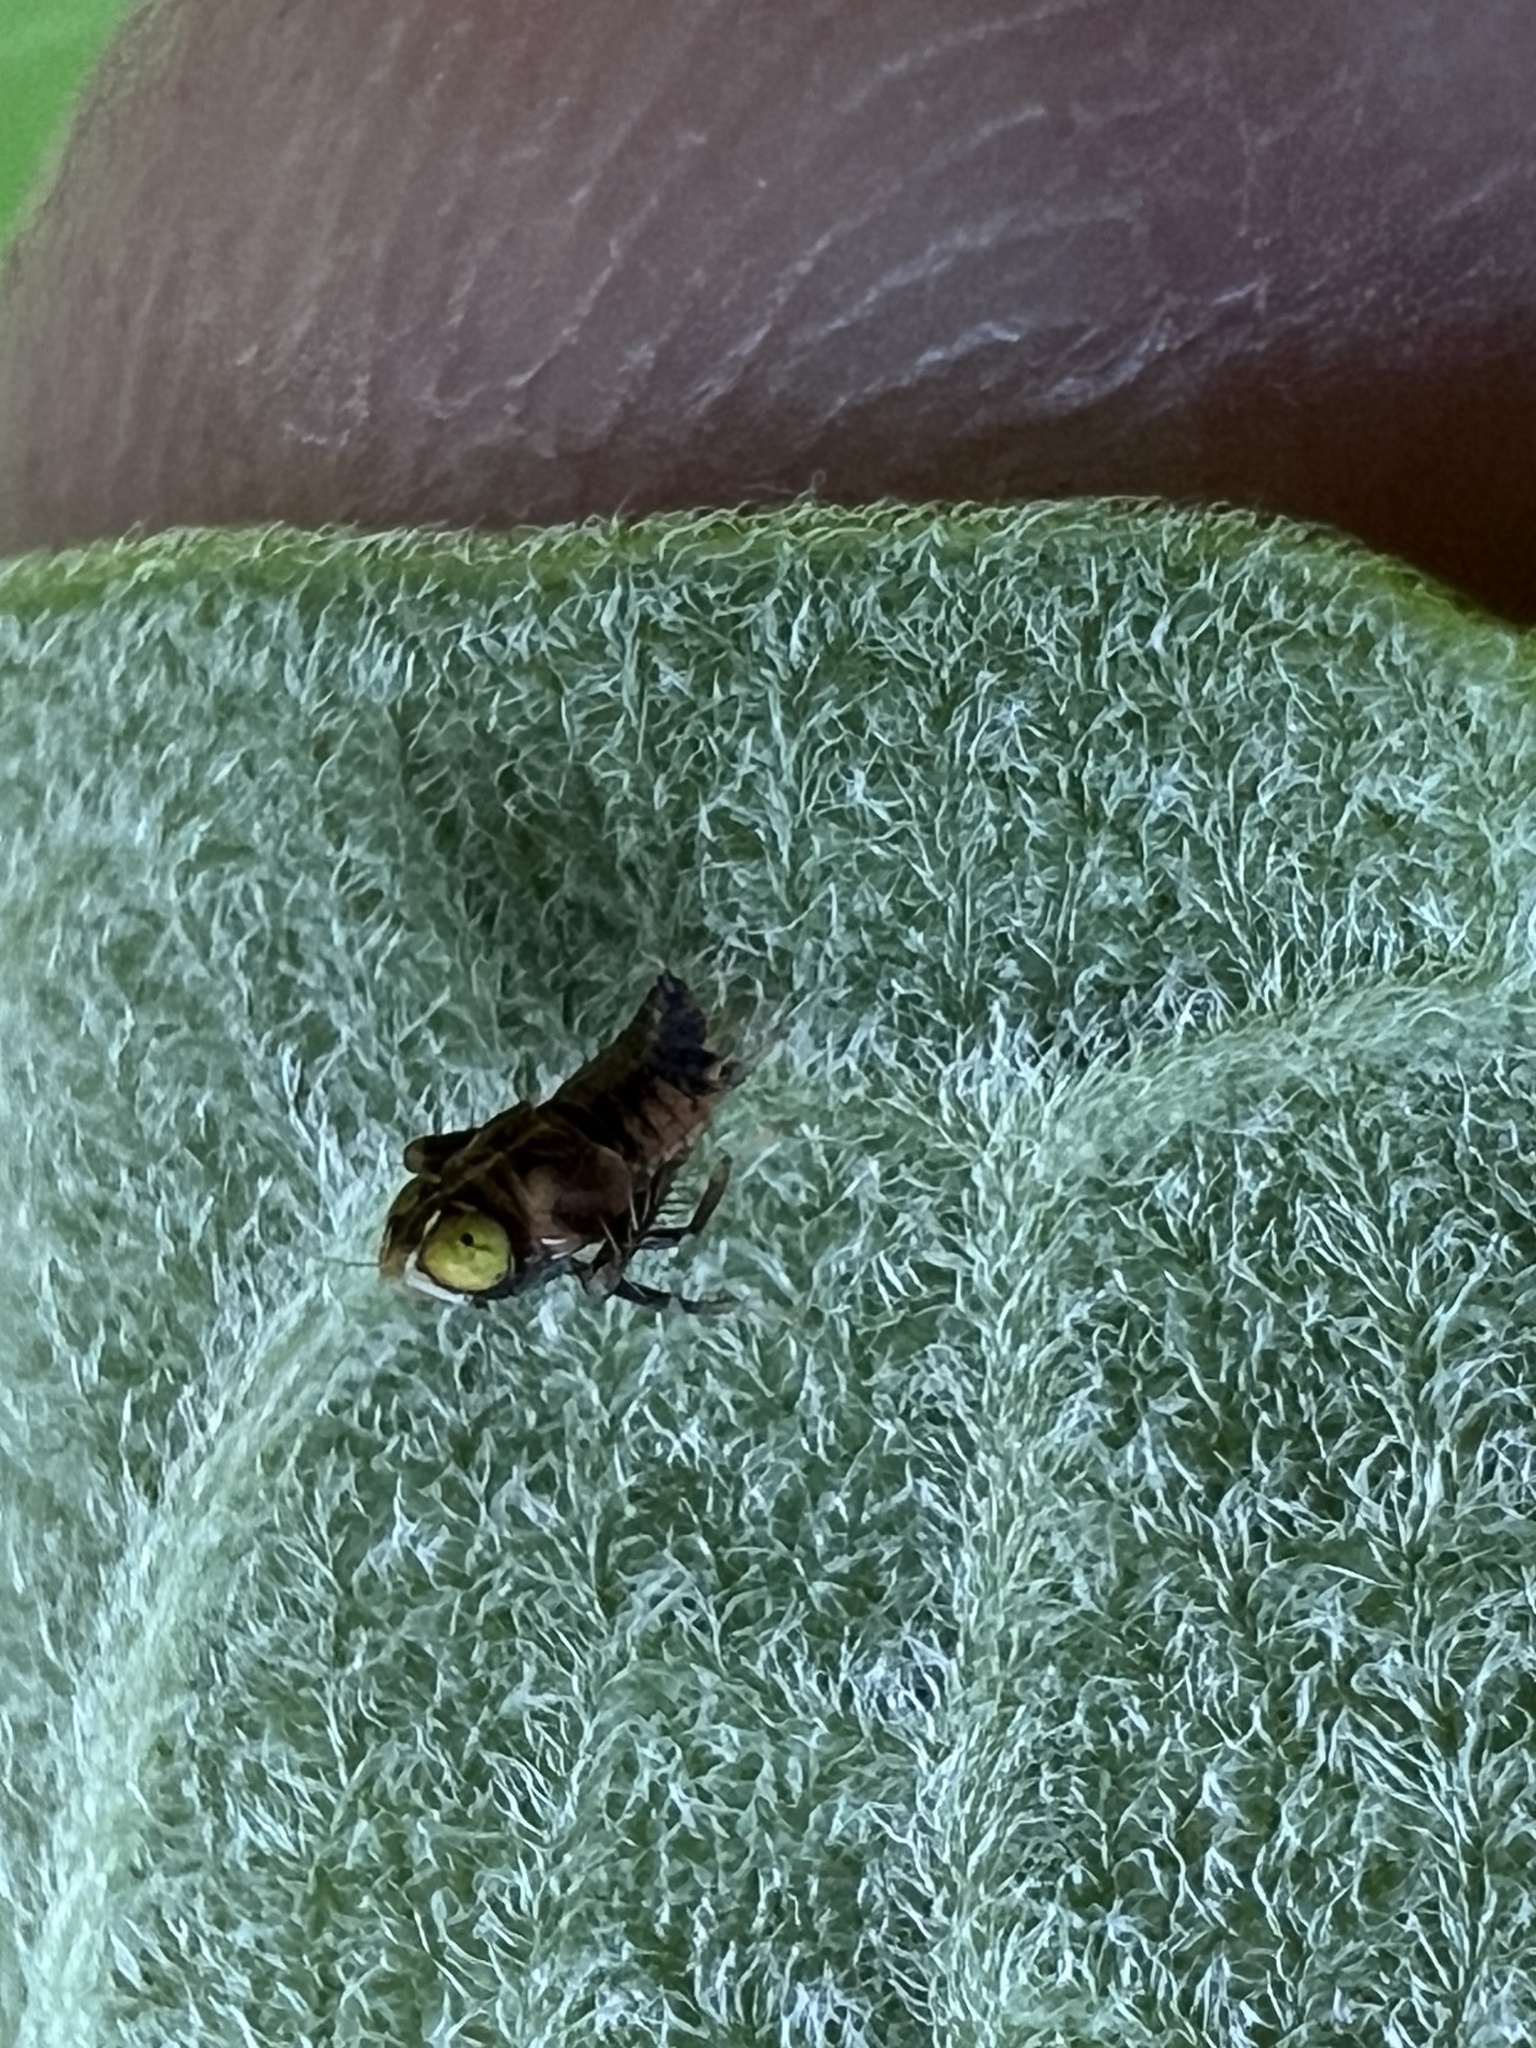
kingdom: Animalia
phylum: Arthropoda
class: Insecta
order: Hemiptera
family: Cicadellidae
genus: Jikradia
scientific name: Jikradia olitoria
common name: Coppery leafhopper
